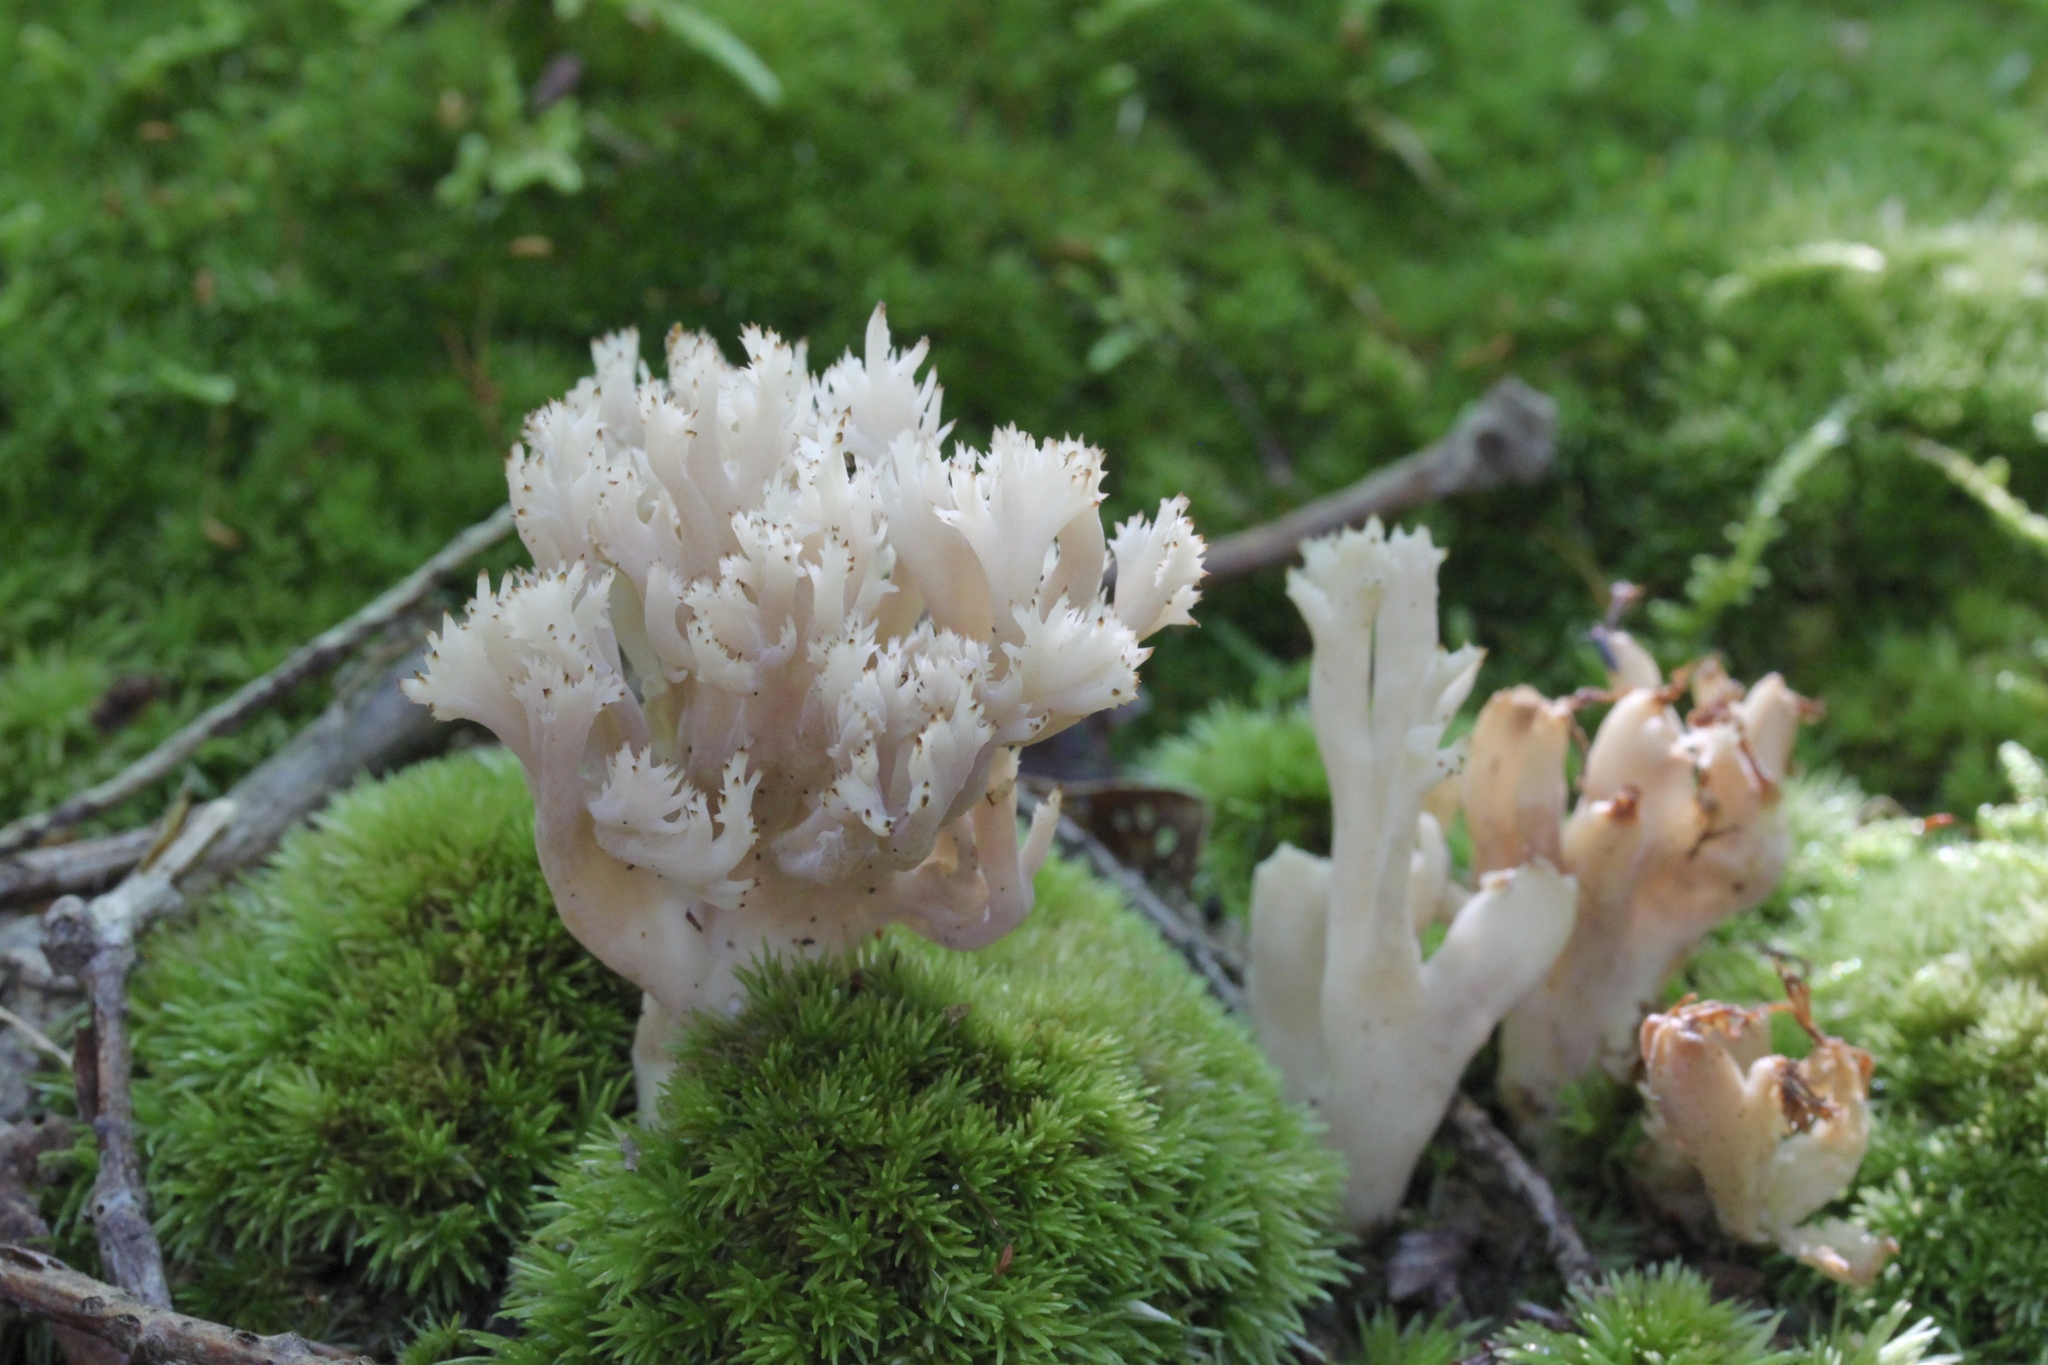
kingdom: Fungi
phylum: Basidiomycota
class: Agaricomycetes
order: Cantharellales
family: Hydnaceae
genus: Clavulina
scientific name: Clavulina coralloides
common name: Crested coral
